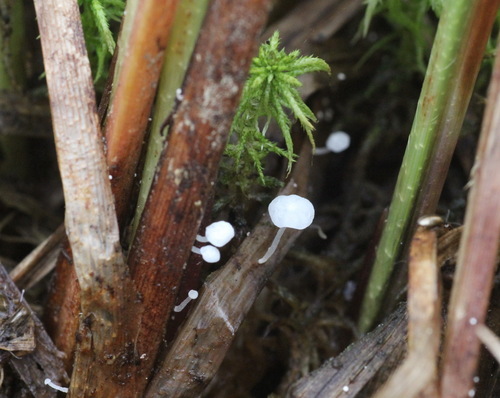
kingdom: Fungi
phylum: Basidiomycota
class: Agaricomycetes
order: Agaricales
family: Marasmiaceae
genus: Marasmius
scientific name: Marasmius
